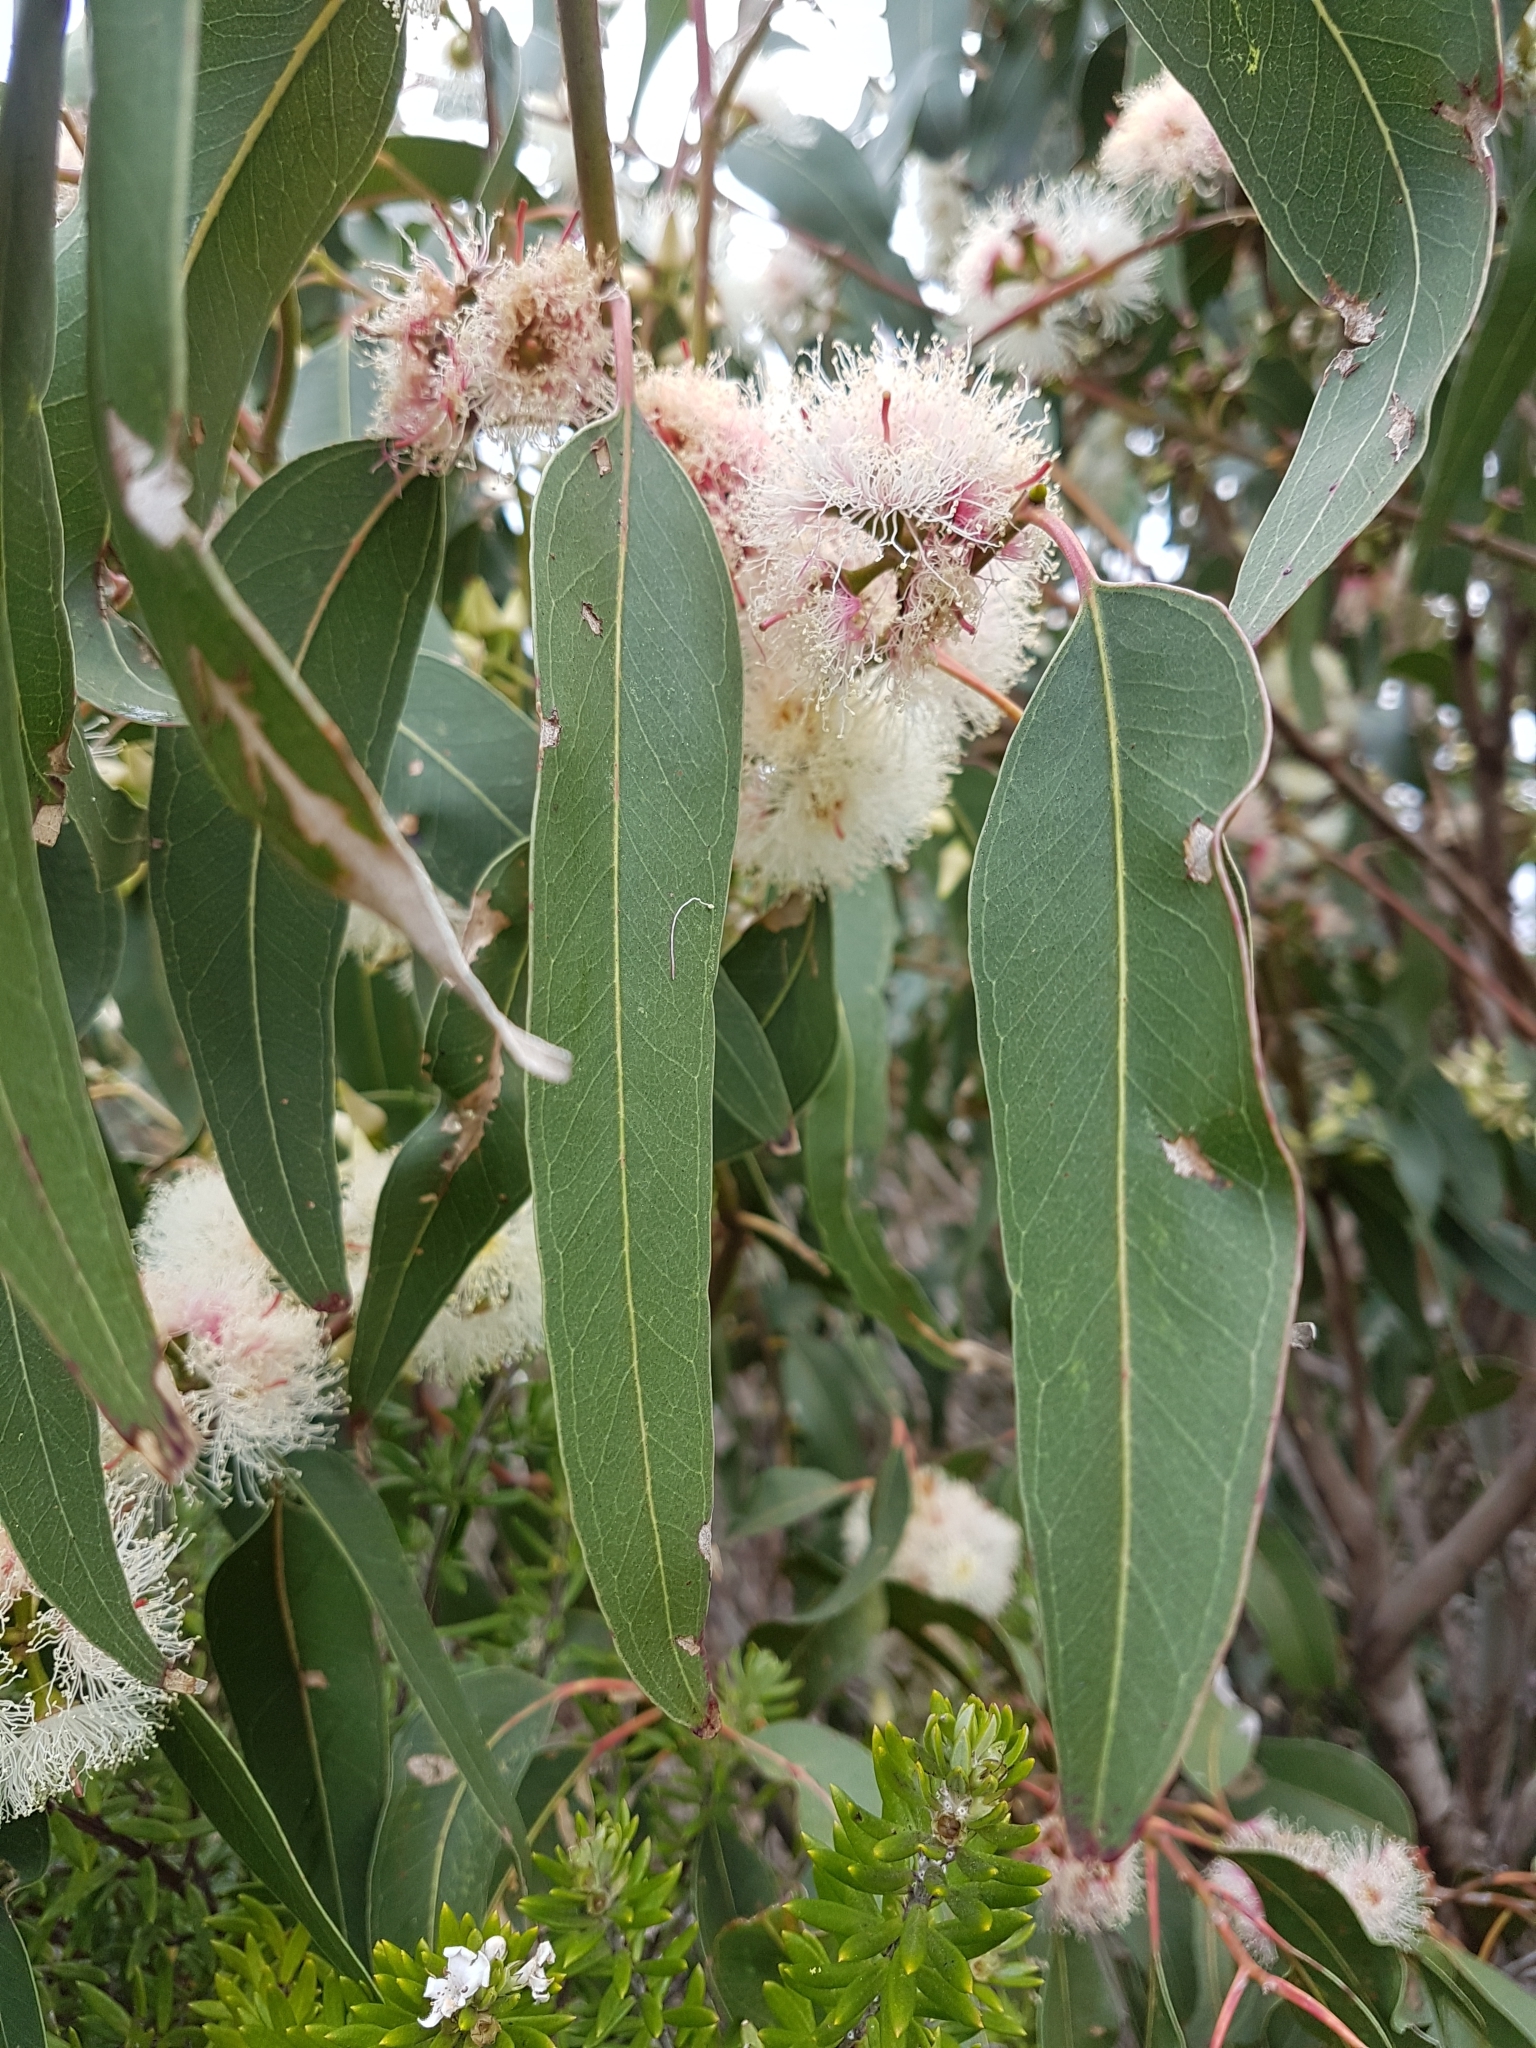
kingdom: Plantae
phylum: Tracheophyta
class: Magnoliopsida
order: Myrtales
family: Myrtaceae
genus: Eucalyptus
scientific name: Eucalyptus tereticornis
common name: Forest redgum
